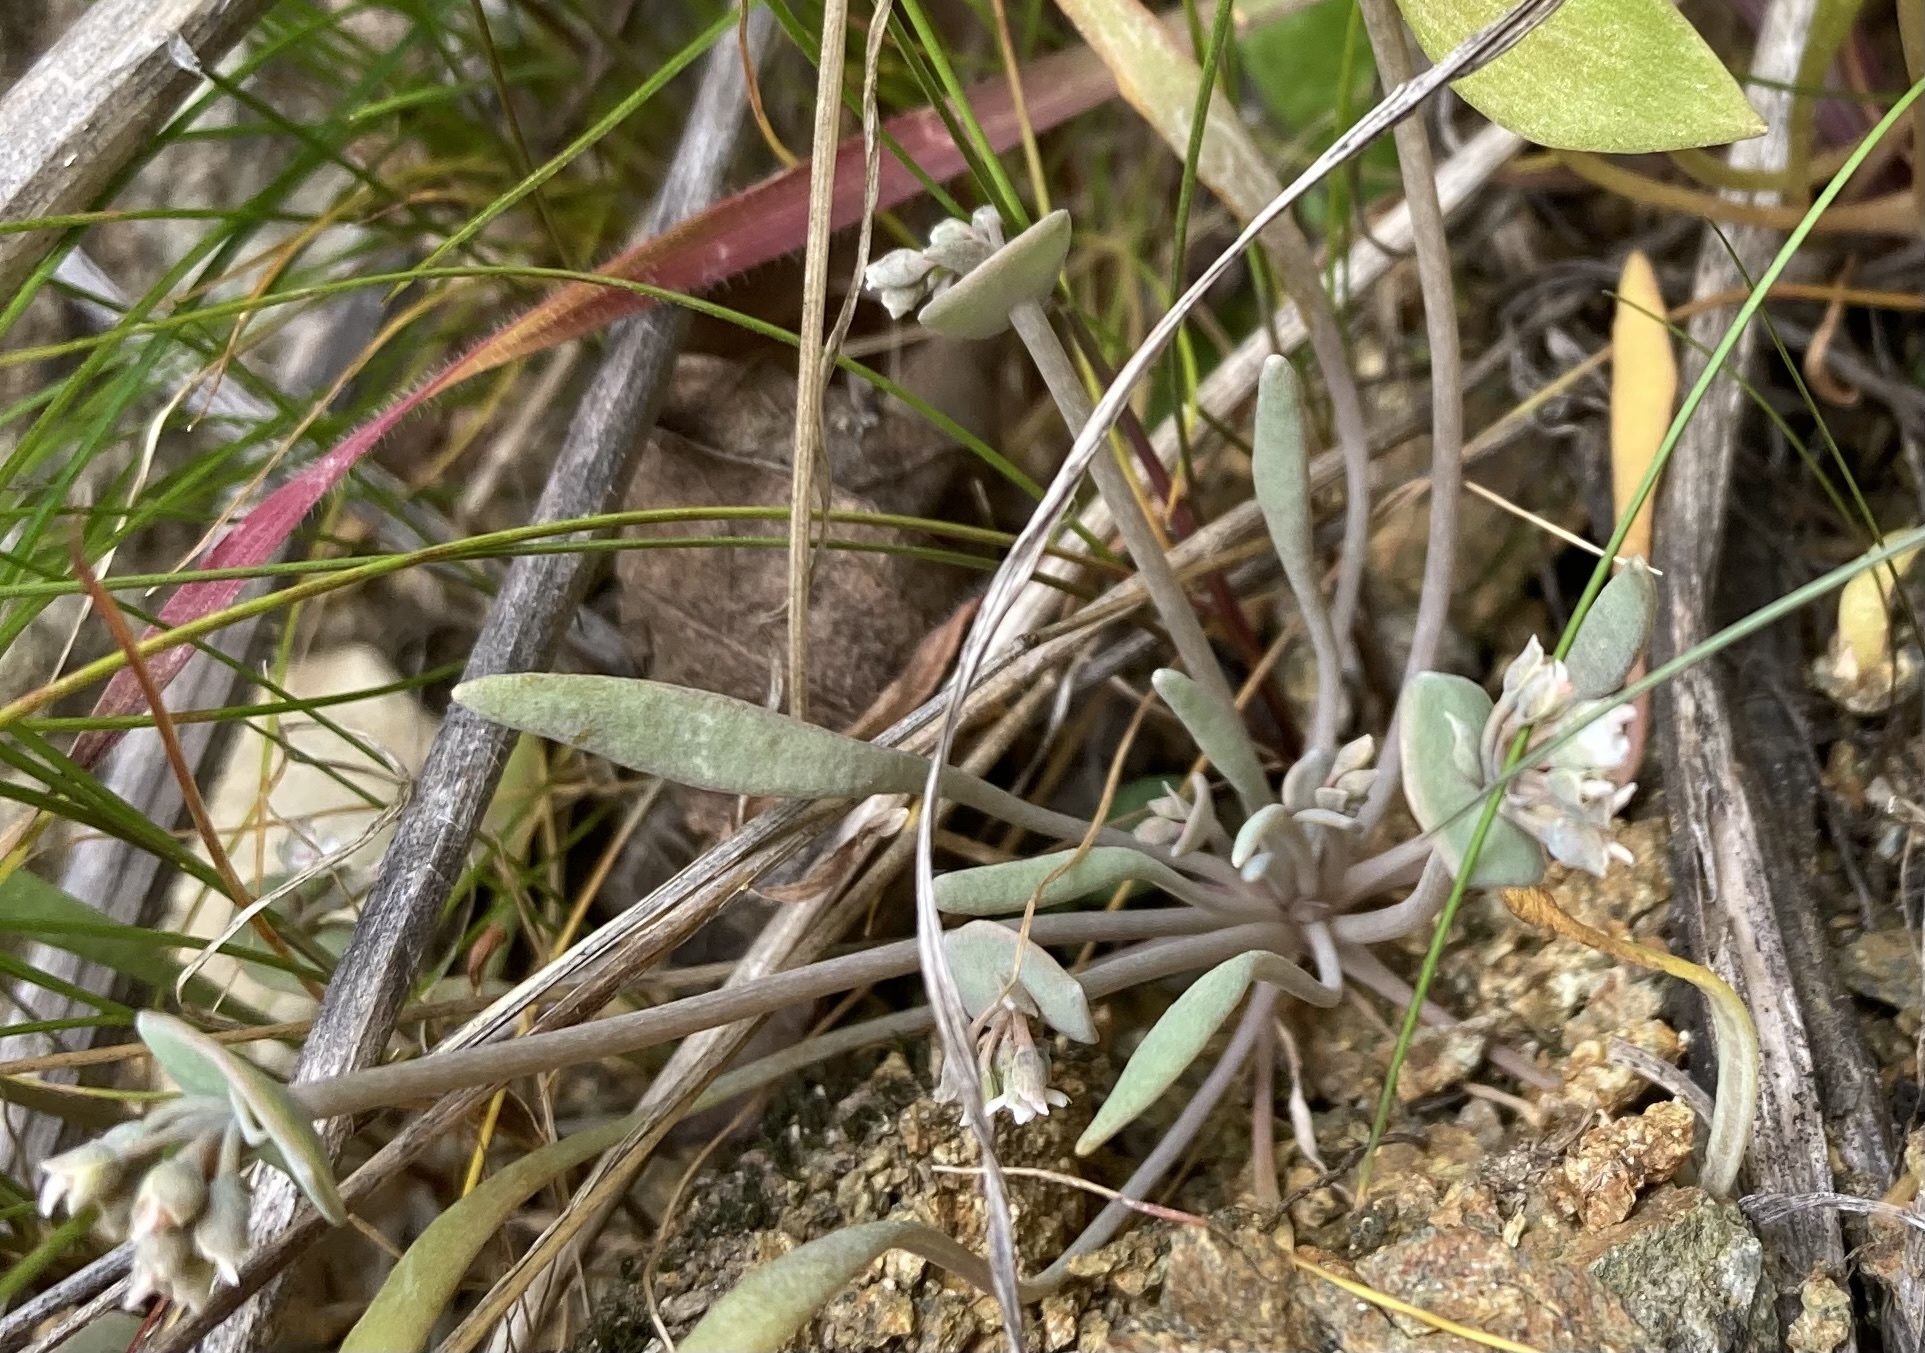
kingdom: Plantae
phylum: Tracheophyta
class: Magnoliopsida
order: Caryophyllales
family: Montiaceae
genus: Claytonia
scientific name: Claytonia exigua
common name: Pale spring beauty
